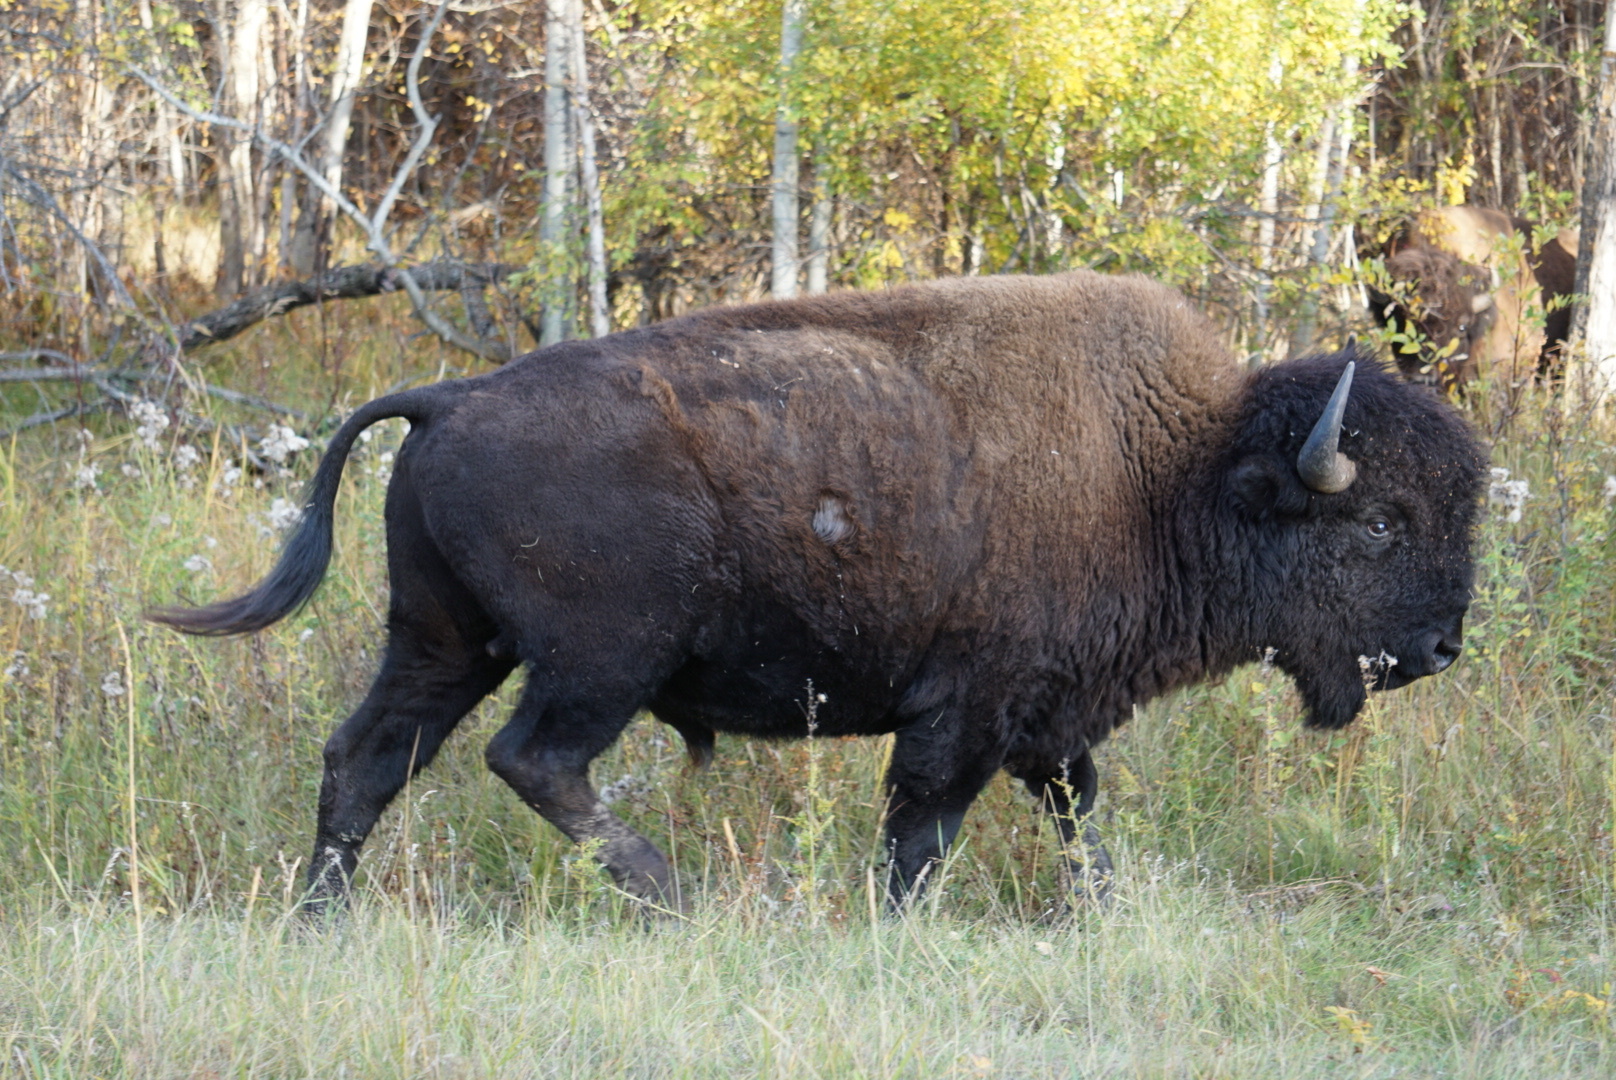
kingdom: Animalia
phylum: Chordata
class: Mammalia
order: Artiodactyla
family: Bovidae
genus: Bison
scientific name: Bison bison
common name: American bison
